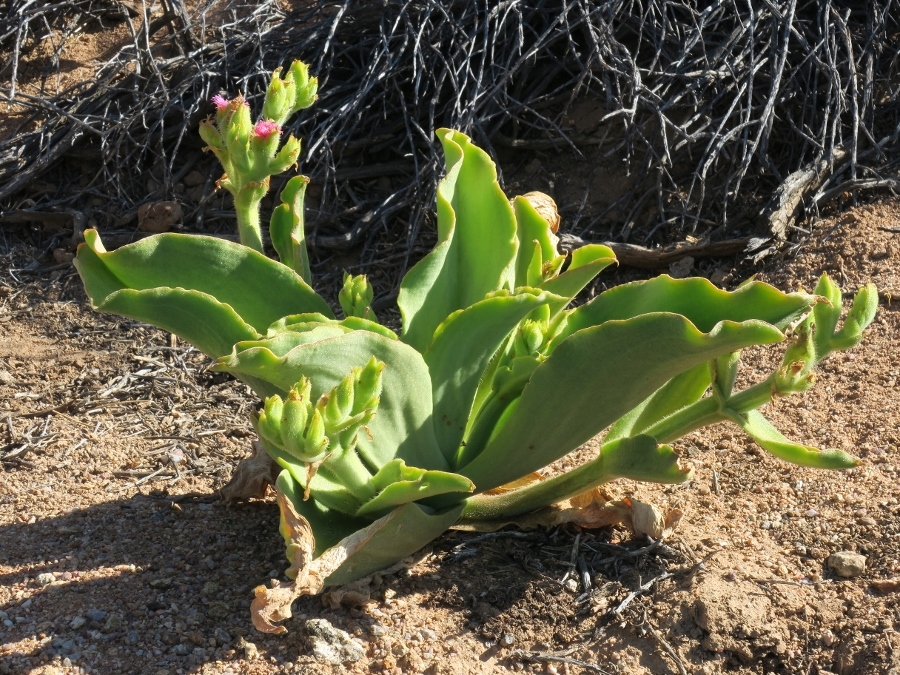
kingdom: Plantae
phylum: Tracheophyta
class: Magnoliopsida
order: Caryophyllales
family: Aizoaceae
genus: Mesembryanthemum
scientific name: Mesembryanthemum barklyi
